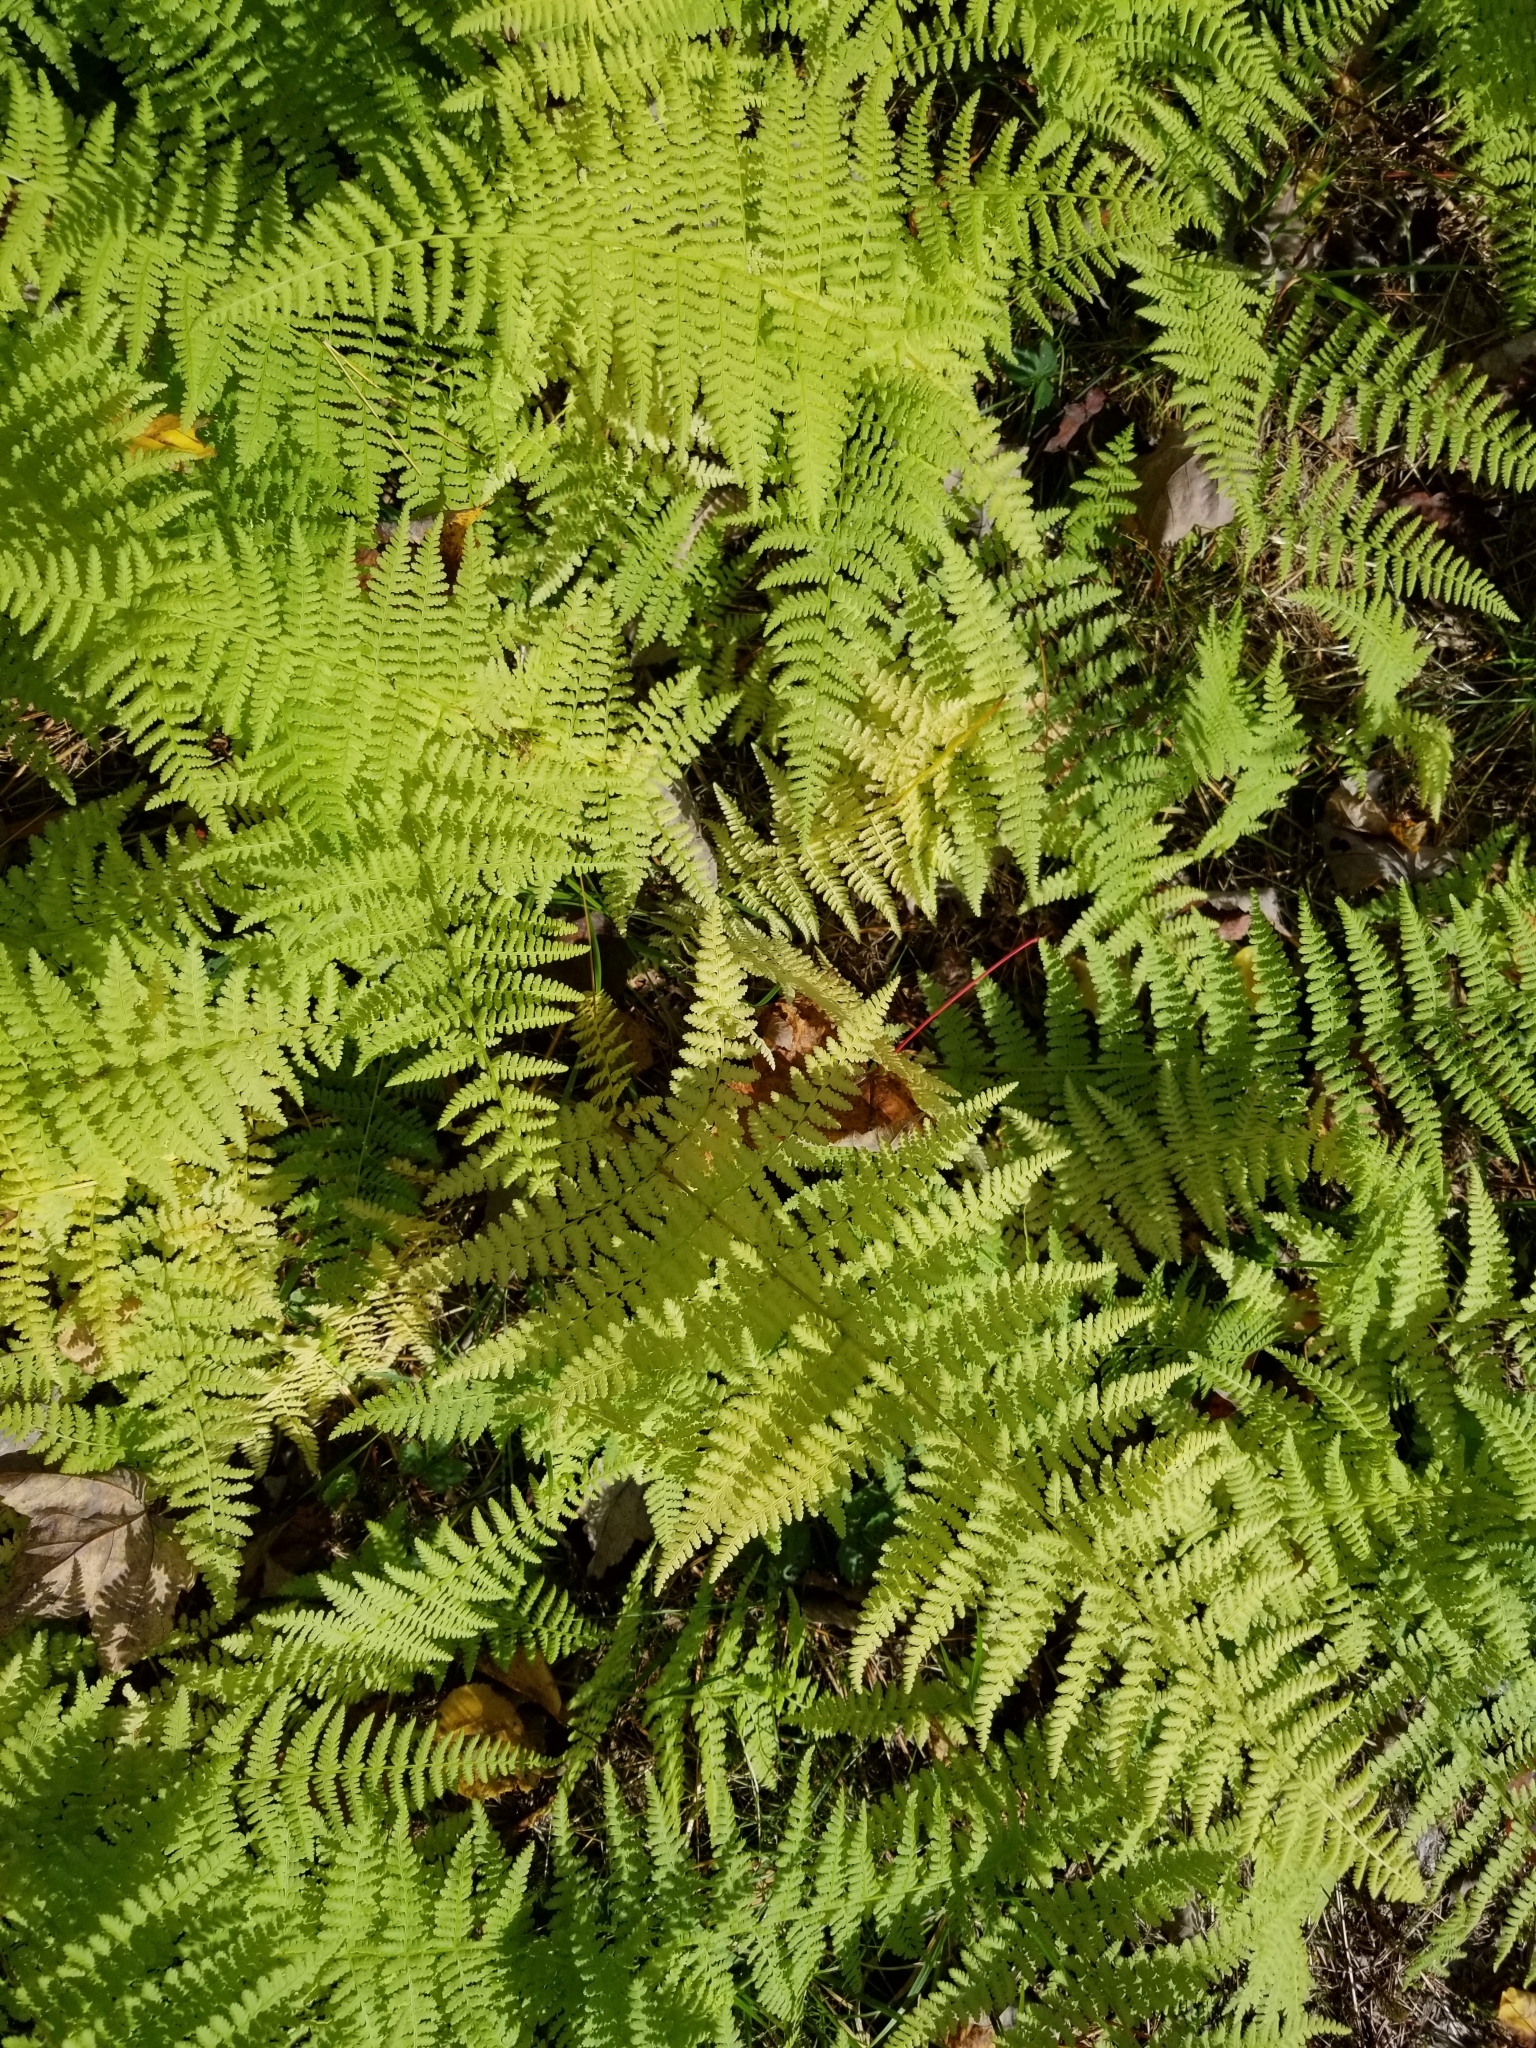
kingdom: Plantae
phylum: Tracheophyta
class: Polypodiopsida
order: Polypodiales
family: Dennstaedtiaceae
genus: Sitobolium
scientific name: Sitobolium punctilobum
